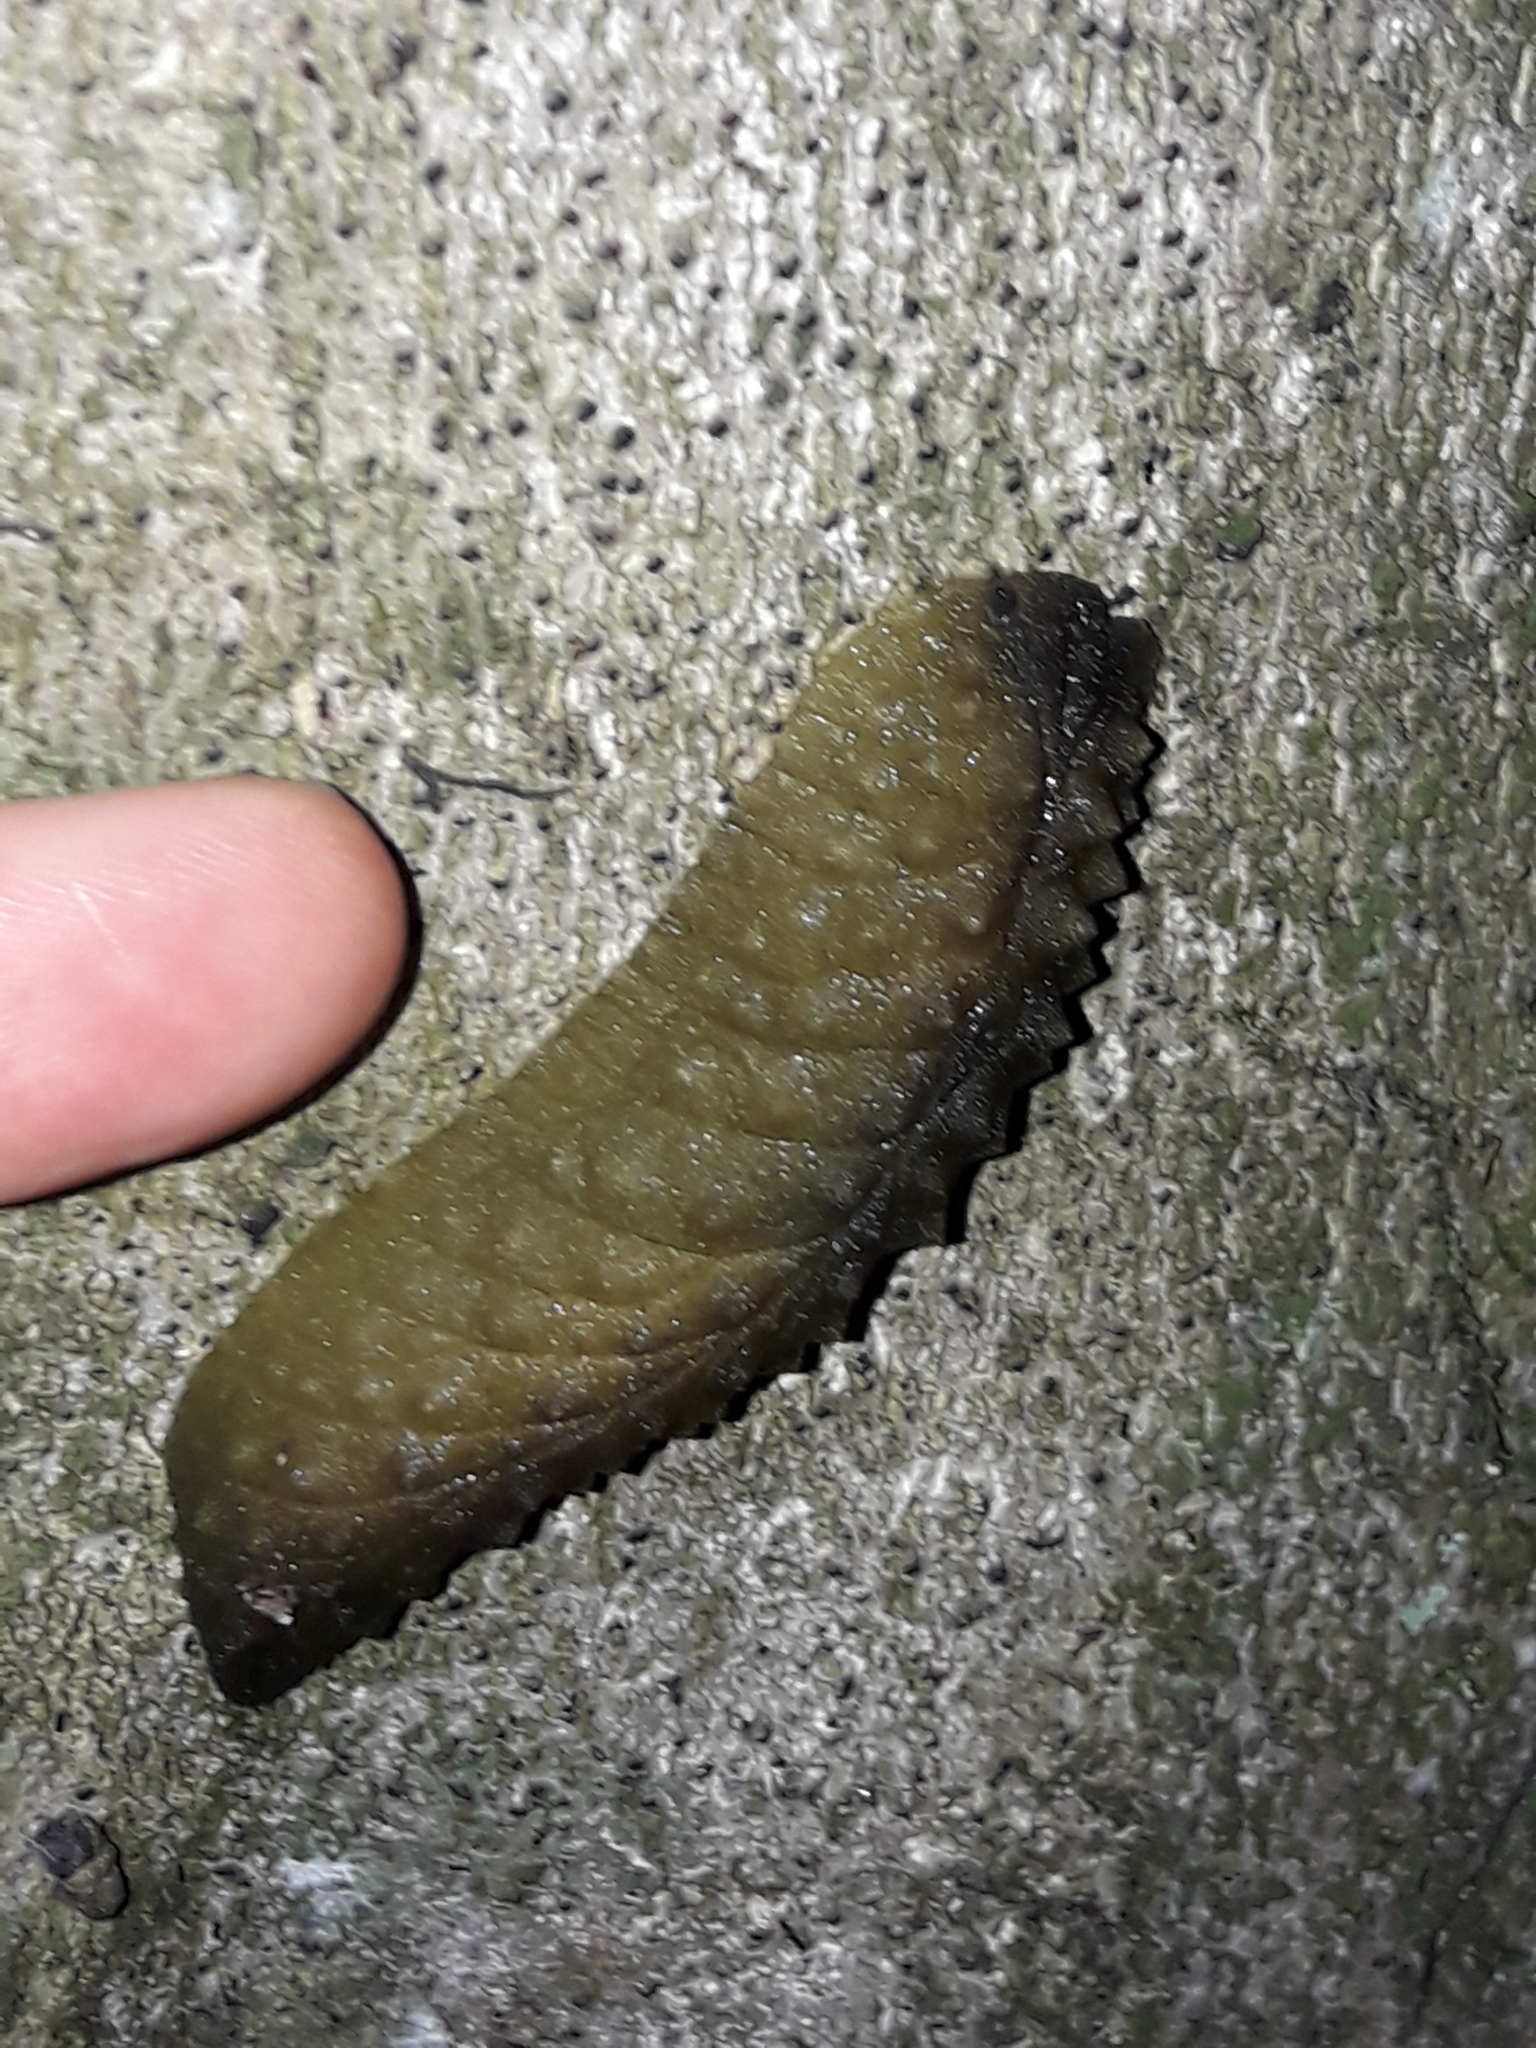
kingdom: Animalia
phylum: Mollusca
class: Gastropoda
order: Stylommatophora
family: Athoracophoridae
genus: Athoracophorus
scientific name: Athoracophorus papillatus
